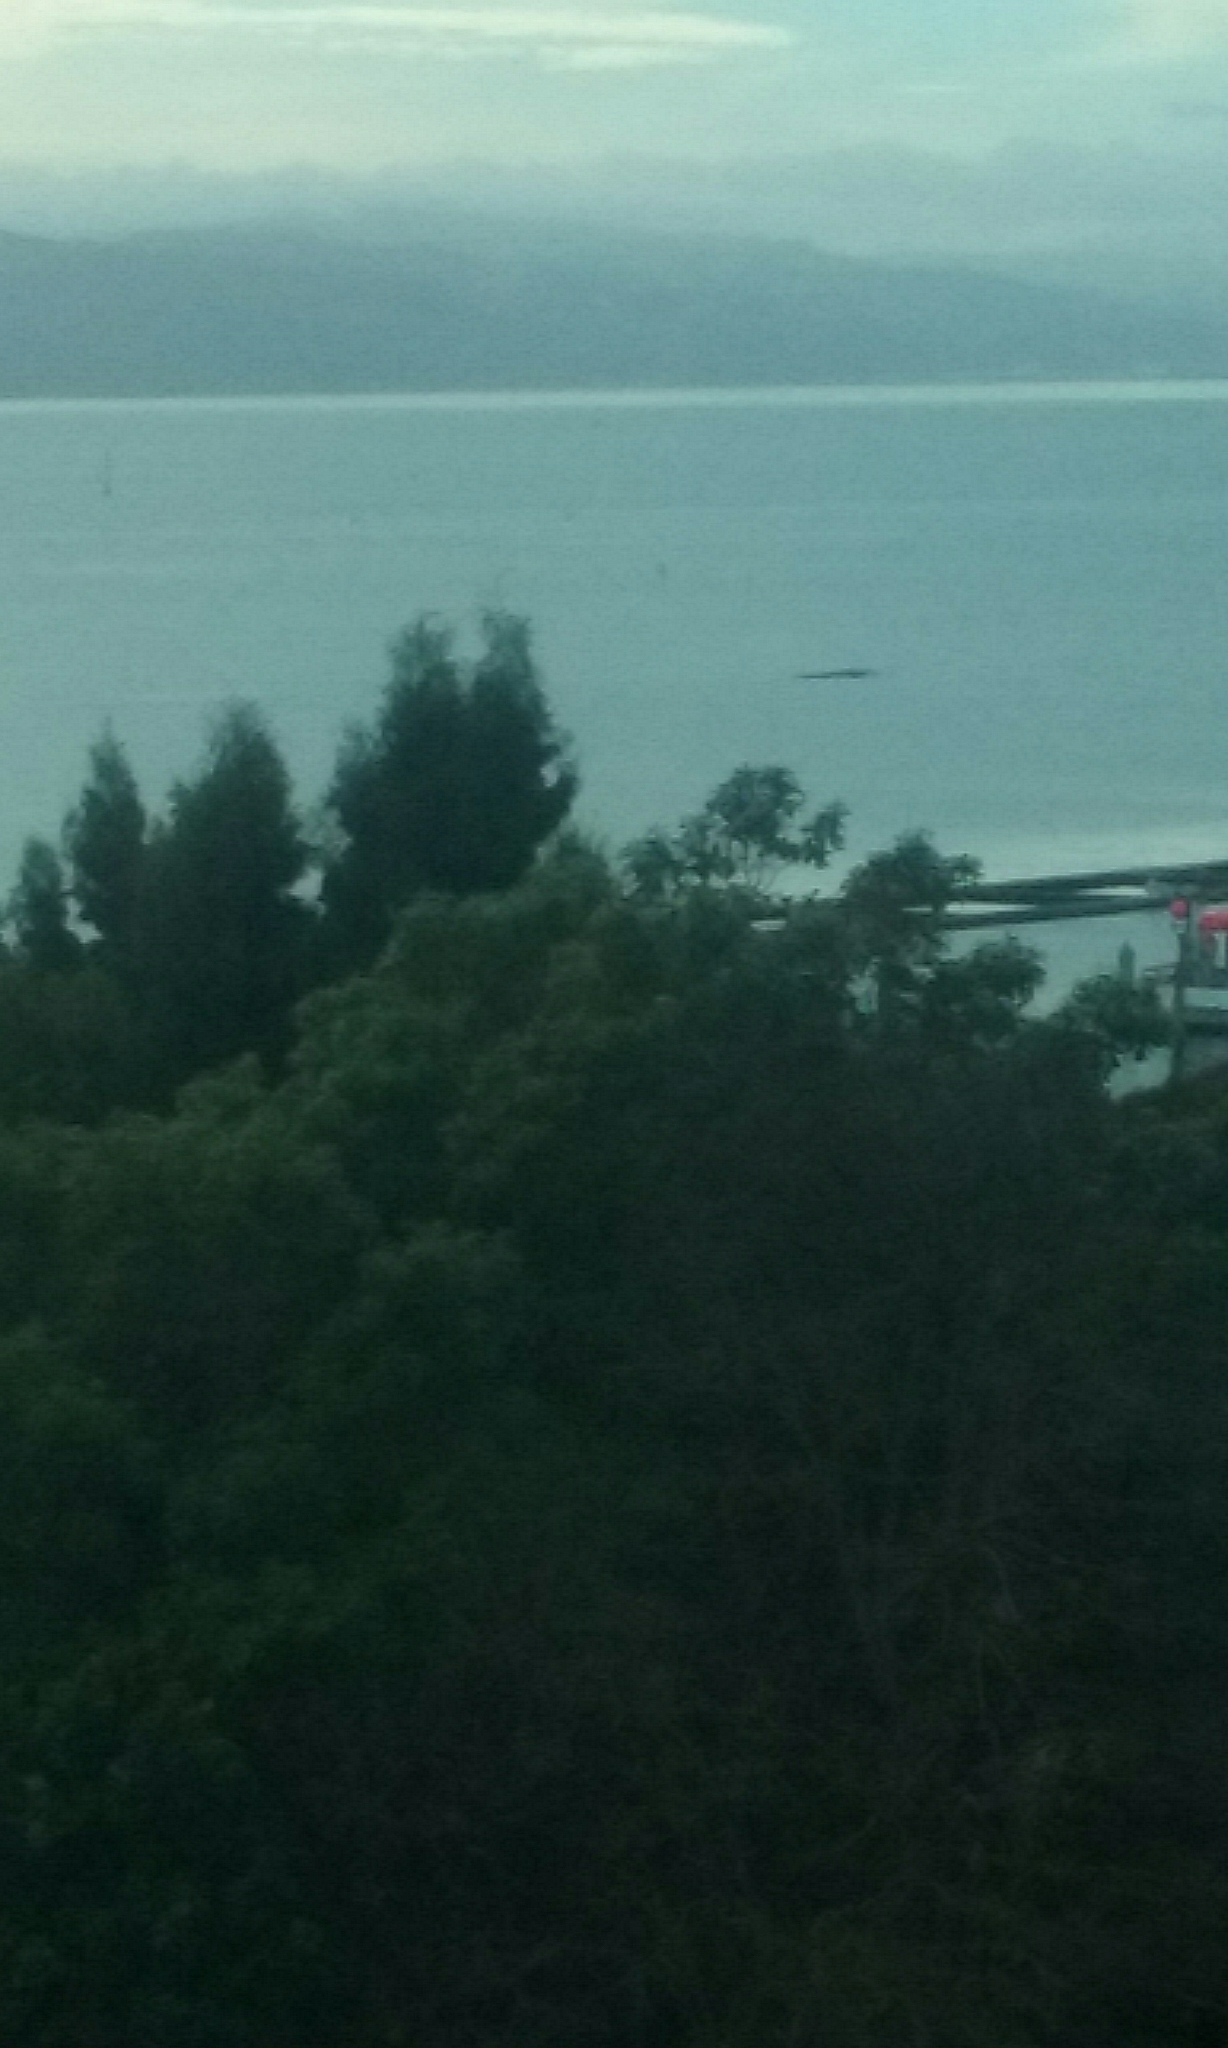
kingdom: Animalia
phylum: Chordata
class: Mammalia
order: Cetacea
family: Balaenidae
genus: Eubalaena
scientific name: Eubalaena australis
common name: Southern right whale
